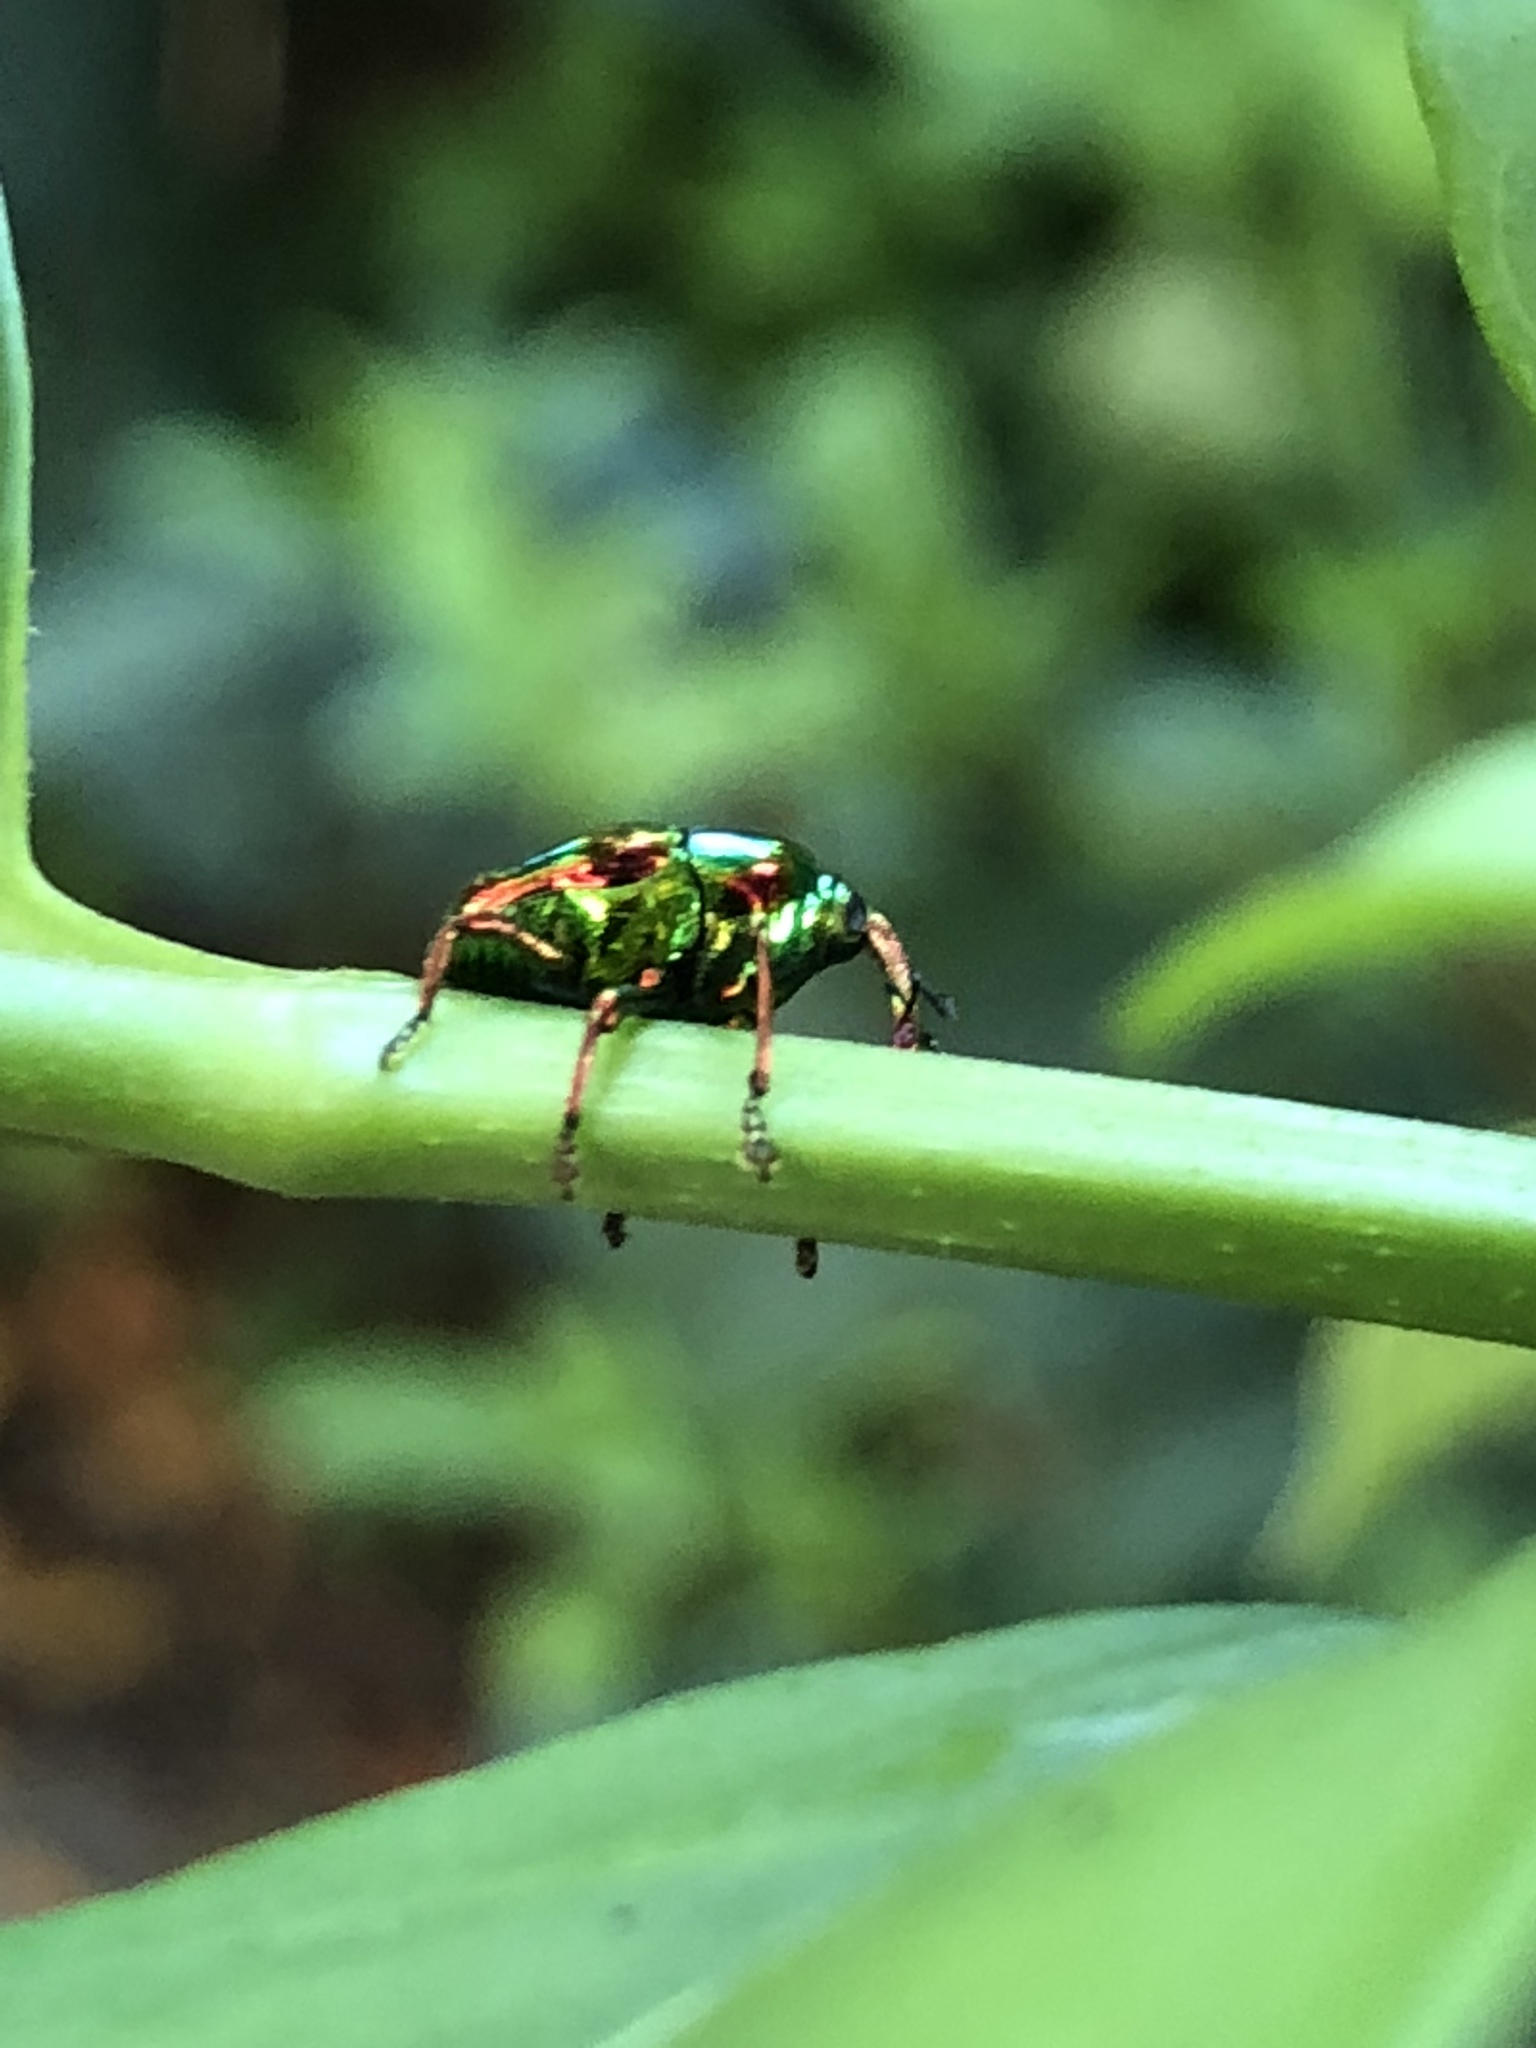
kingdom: Animalia
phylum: Arthropoda
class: Insecta
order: Coleoptera
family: Eurhynchidae
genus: Eurhinus
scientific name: Eurhinus magnificus
